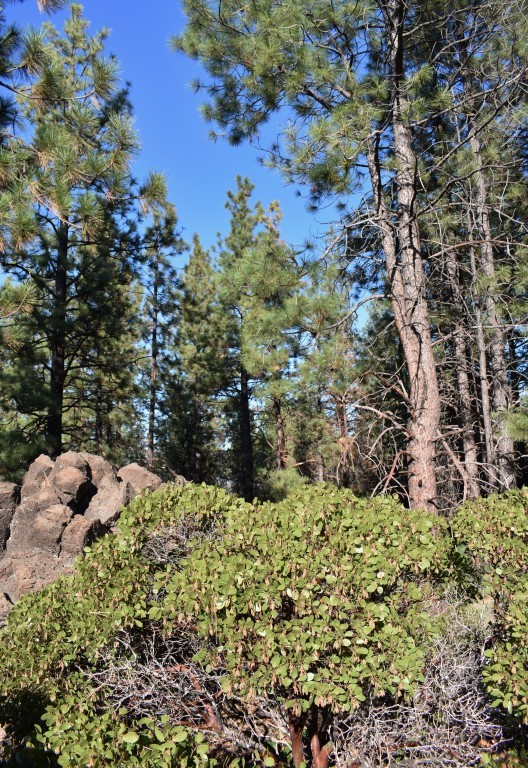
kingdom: Plantae
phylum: Tracheophyta
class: Magnoliopsida
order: Ericales
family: Ericaceae
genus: Arctostaphylos
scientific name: Arctostaphylos patula
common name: Green-leaf manzanita
